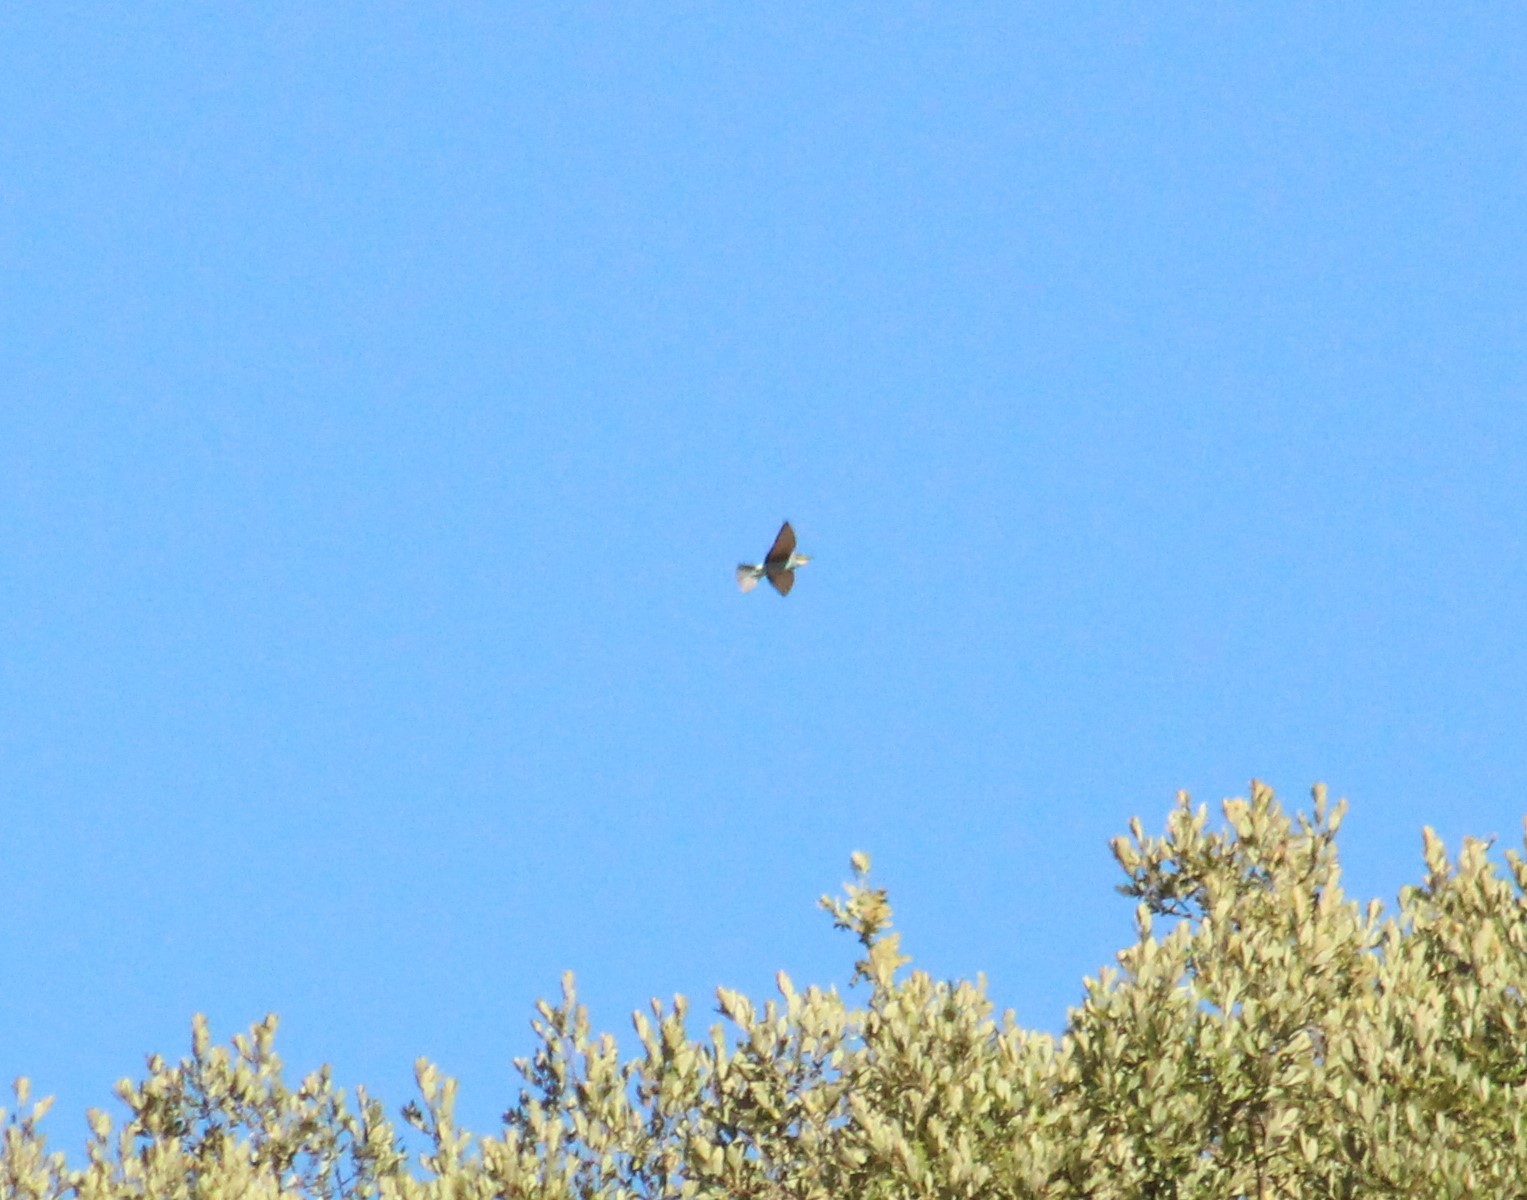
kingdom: Animalia
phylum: Chordata
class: Aves
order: Coraciiformes
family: Meropidae
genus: Merops
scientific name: Merops apiaster
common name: European bee-eater
